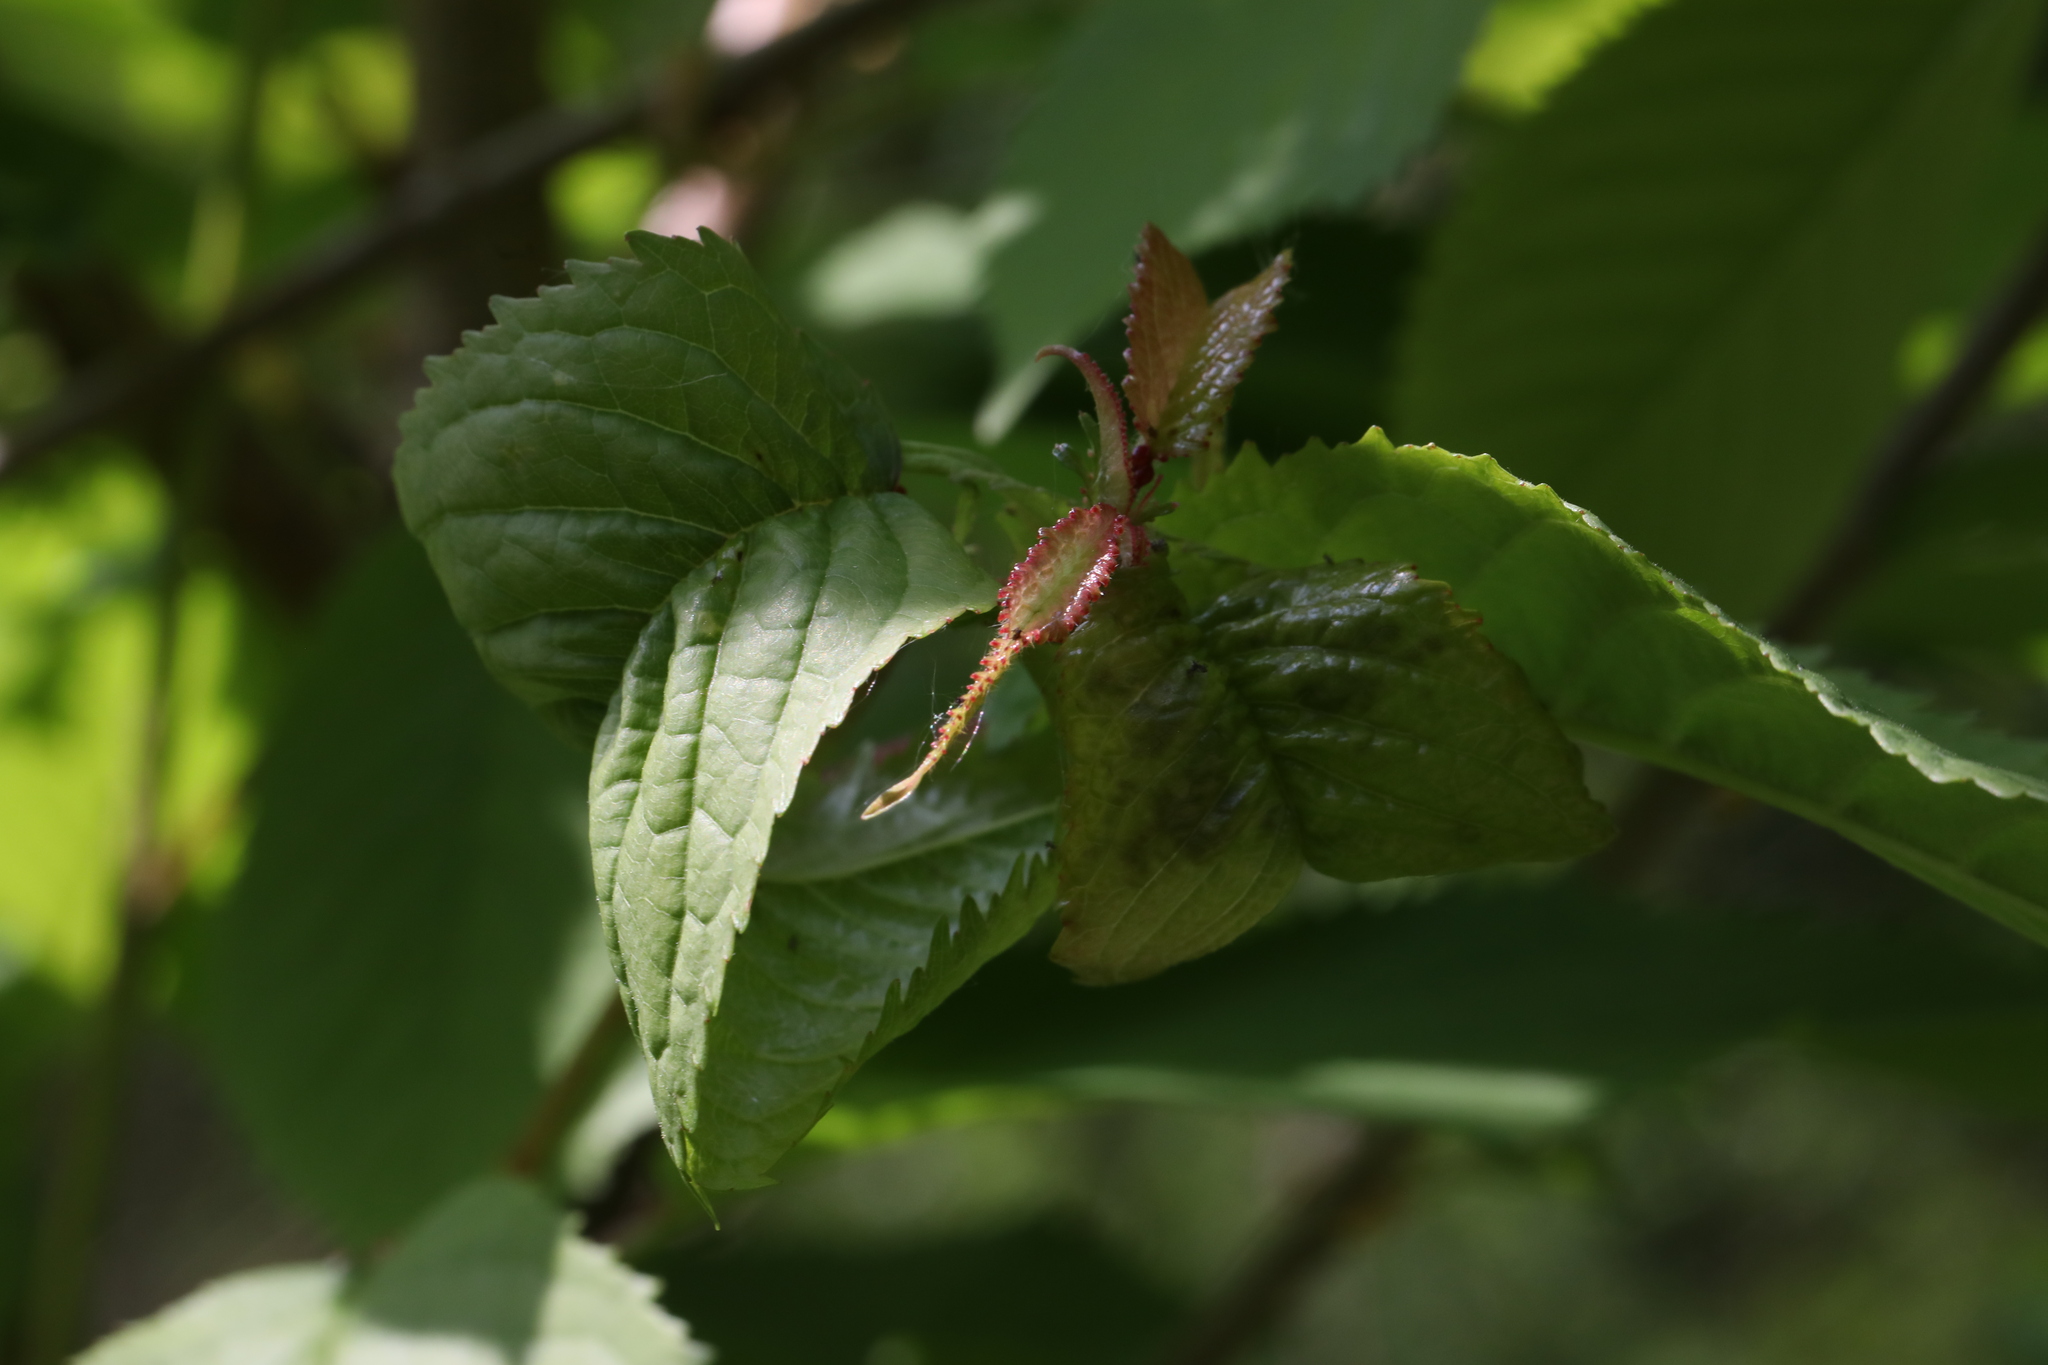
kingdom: Plantae
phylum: Tracheophyta
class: Magnoliopsida
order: Rosales
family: Rosaceae
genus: Prunus
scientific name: Prunus avium
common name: Sweet cherry
